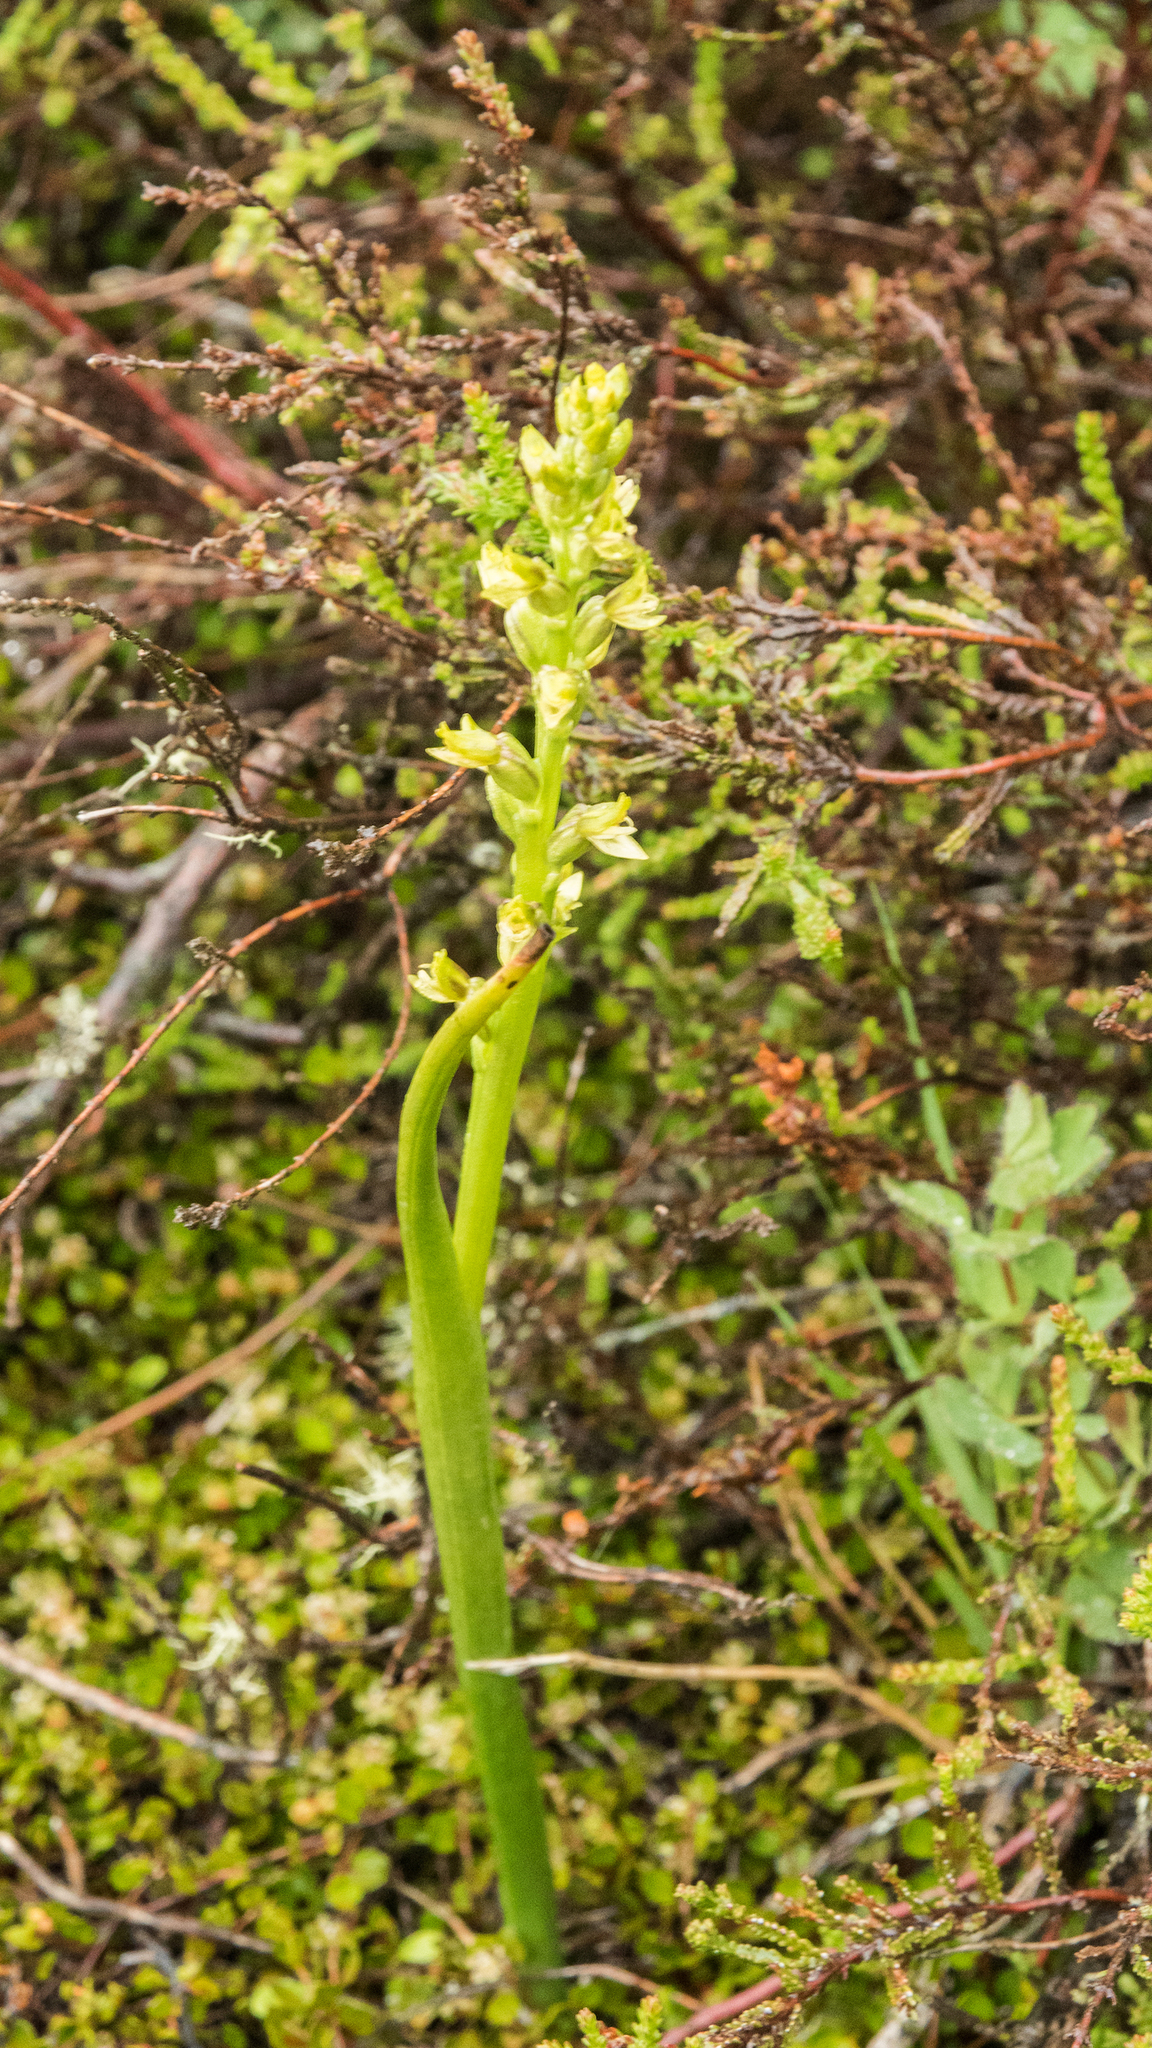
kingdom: Plantae
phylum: Tracheophyta
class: Liliopsida
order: Asparagales
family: Orchidaceae
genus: Prasophyllum
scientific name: Prasophyllum colensoi
